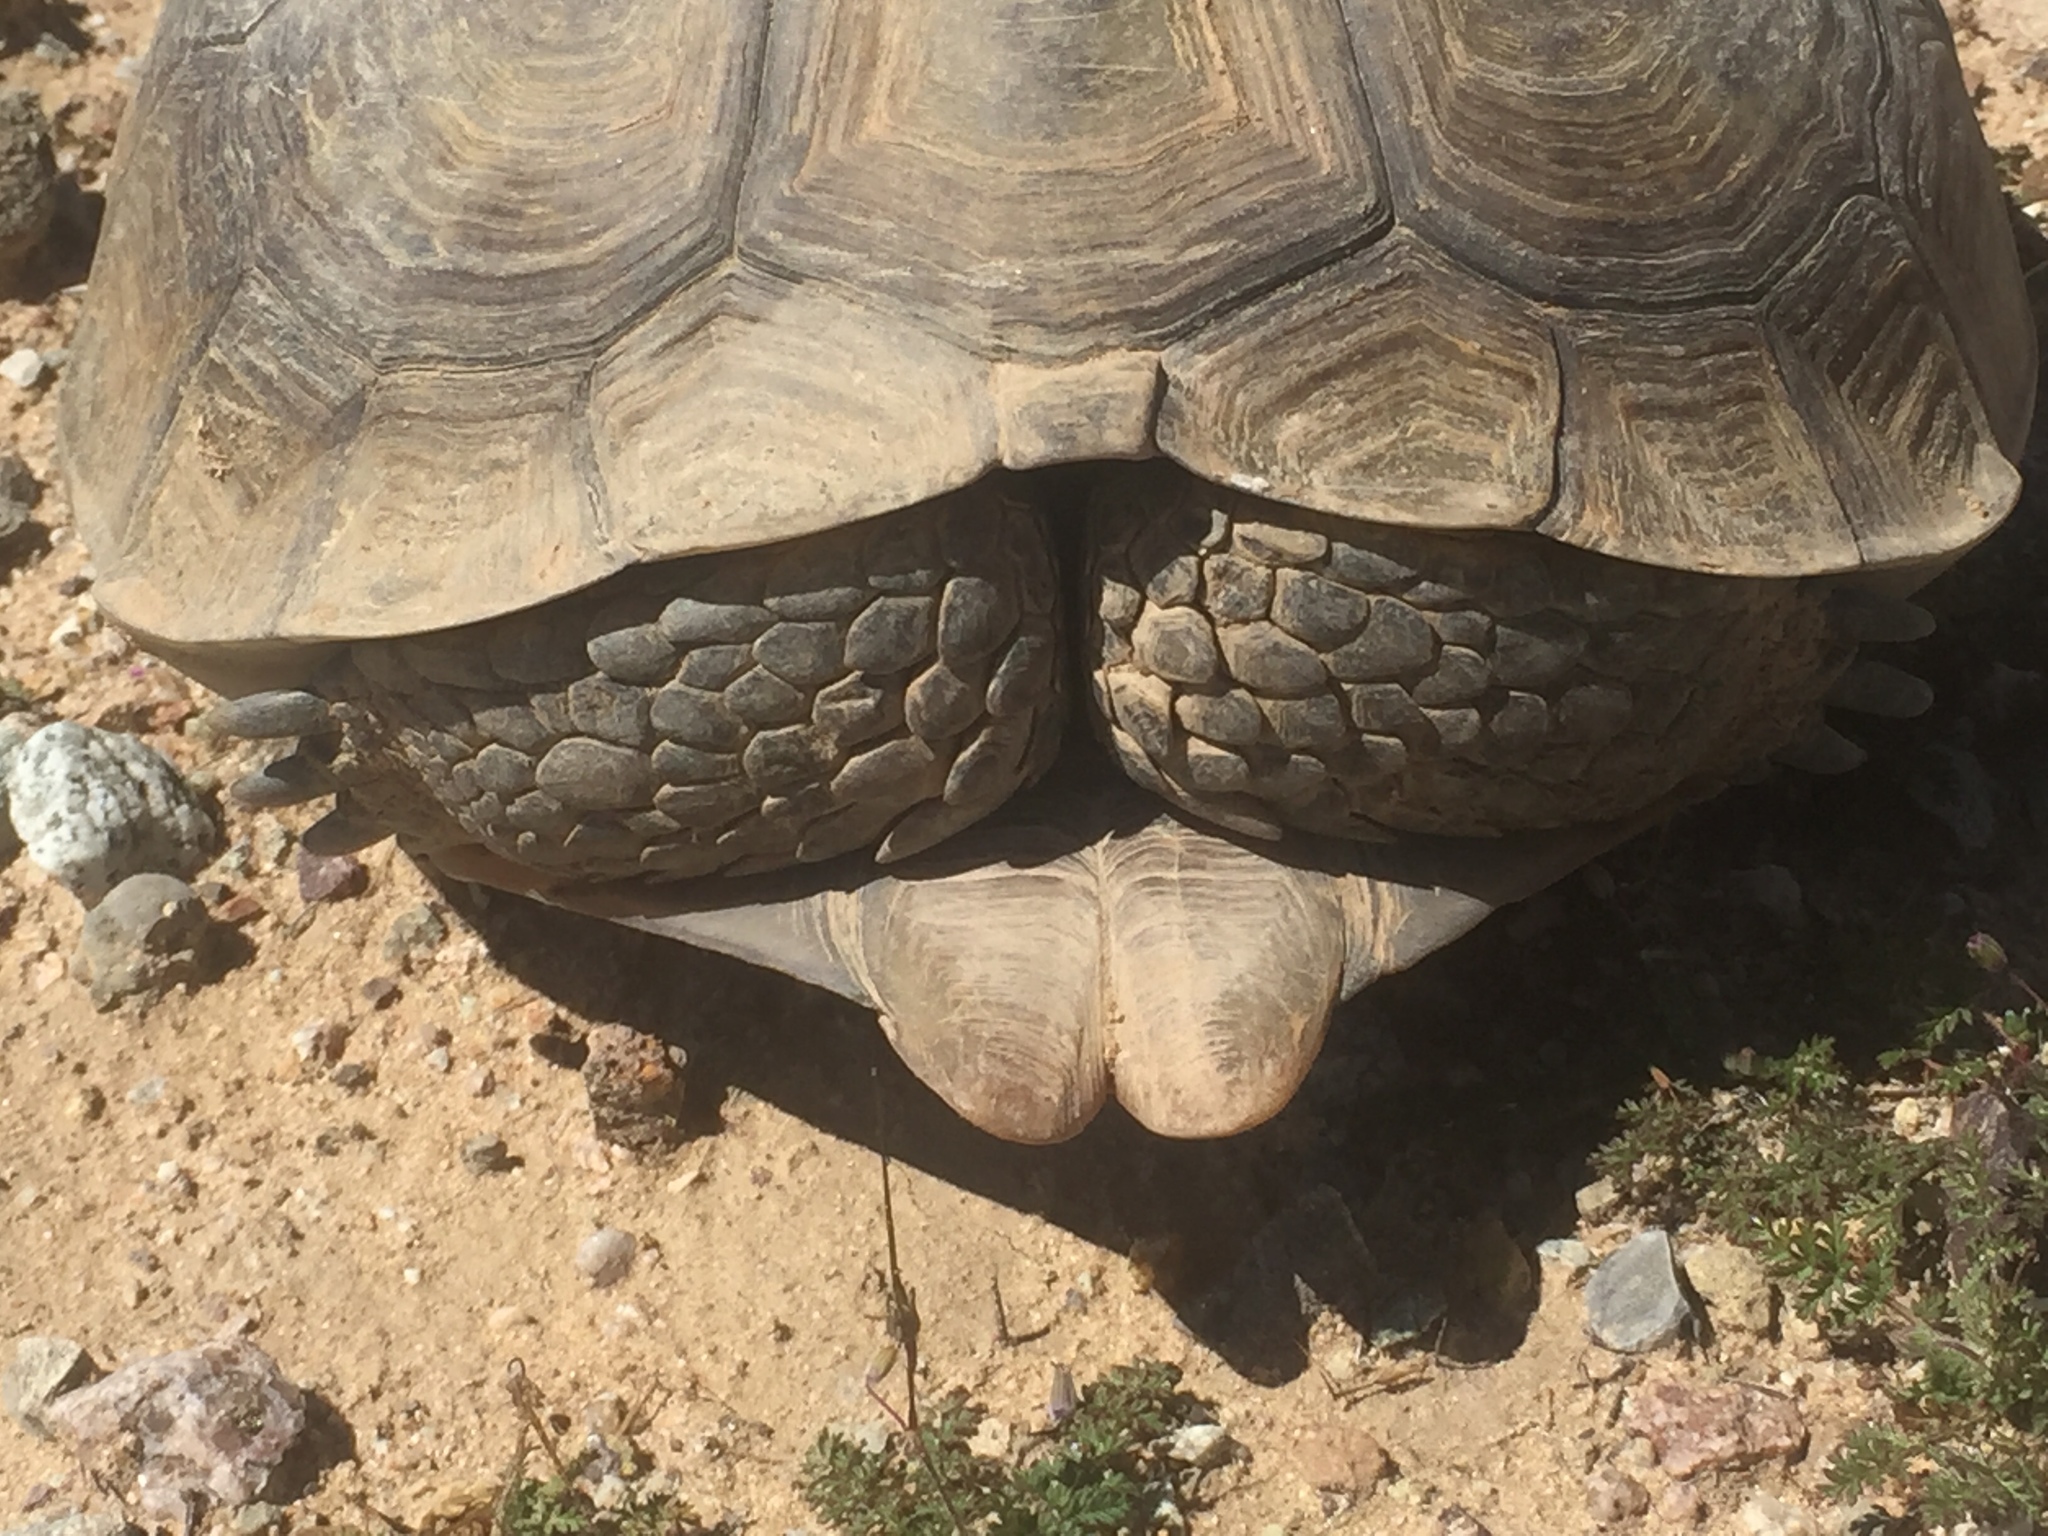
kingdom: Animalia
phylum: Chordata
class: Testudines
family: Testudinidae
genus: Gopherus
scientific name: Gopherus agassizii
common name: Mojave desert tortoise
